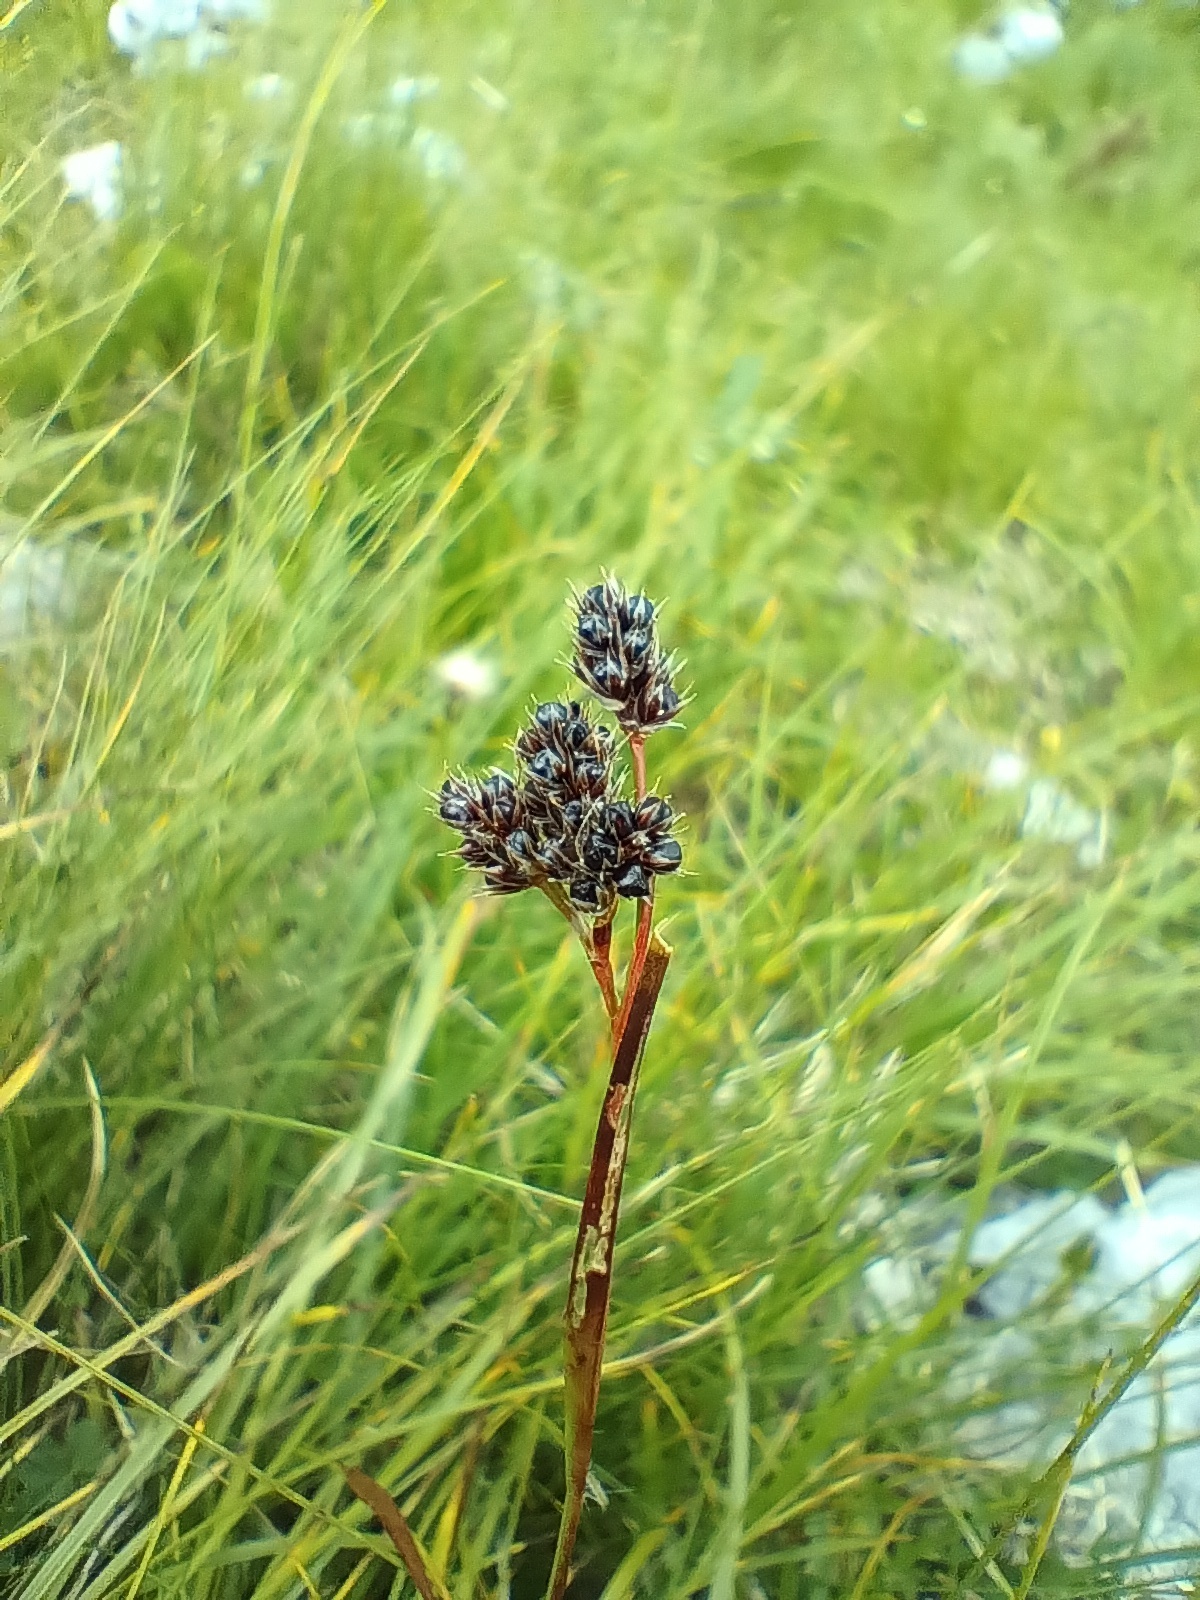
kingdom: Plantae
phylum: Tracheophyta
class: Liliopsida
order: Poales
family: Juncaceae
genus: Luzula
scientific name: Luzula alpina
